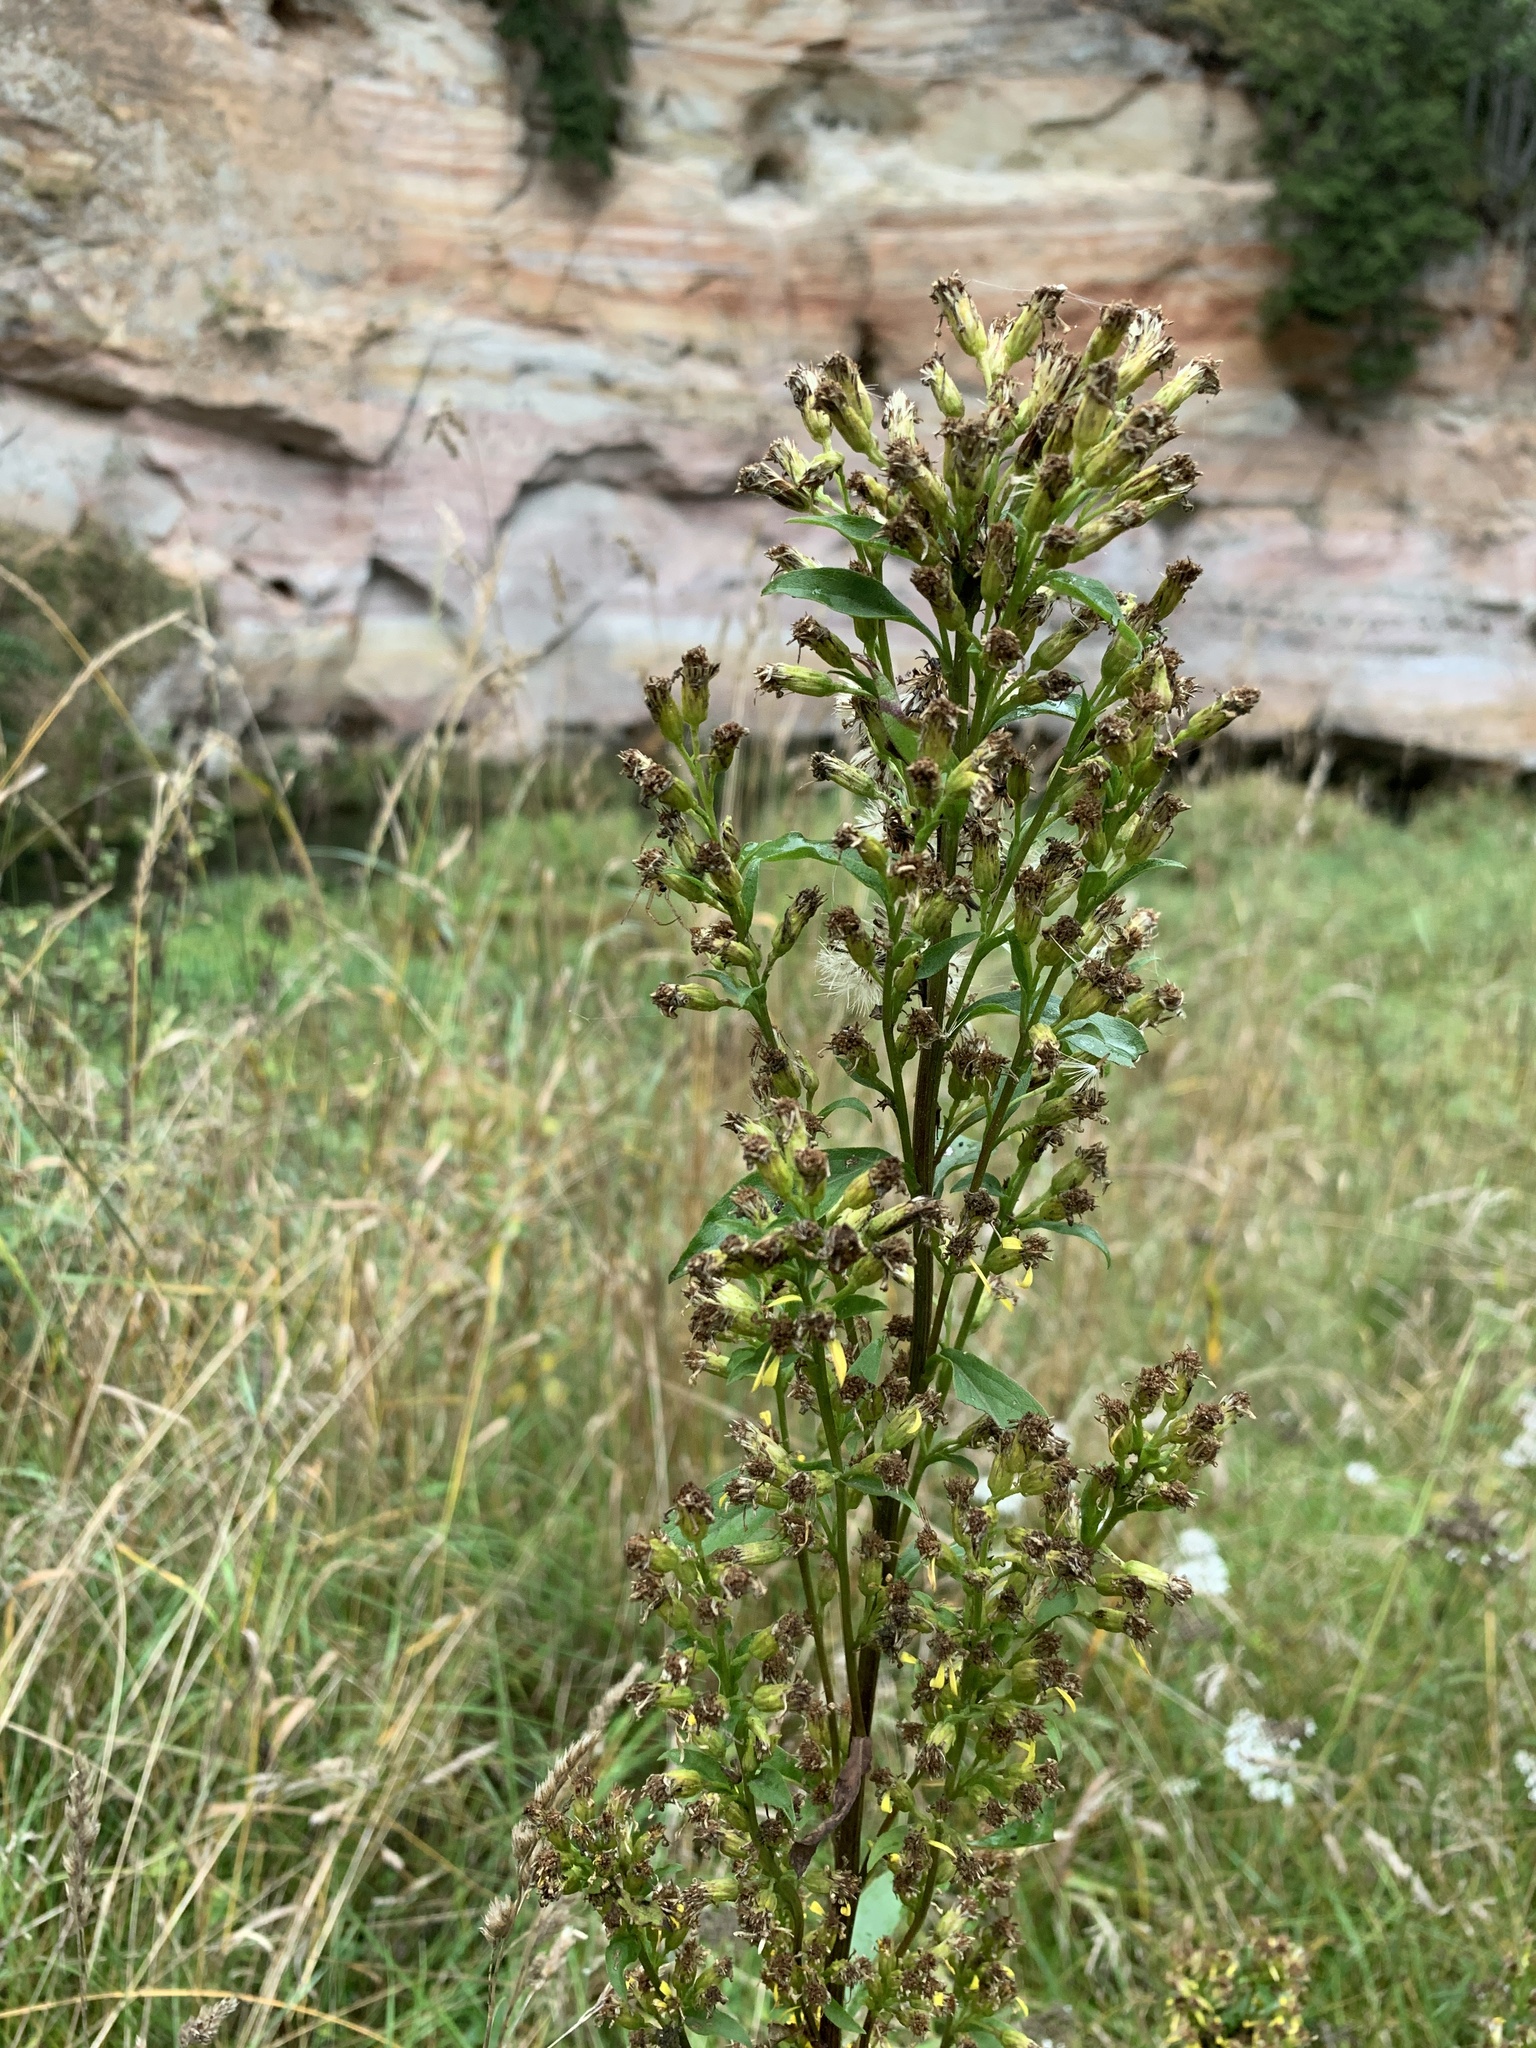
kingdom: Plantae
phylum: Tracheophyta
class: Magnoliopsida
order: Asterales
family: Asteraceae
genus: Solidago
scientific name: Solidago virgaurea
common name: Goldenrod
